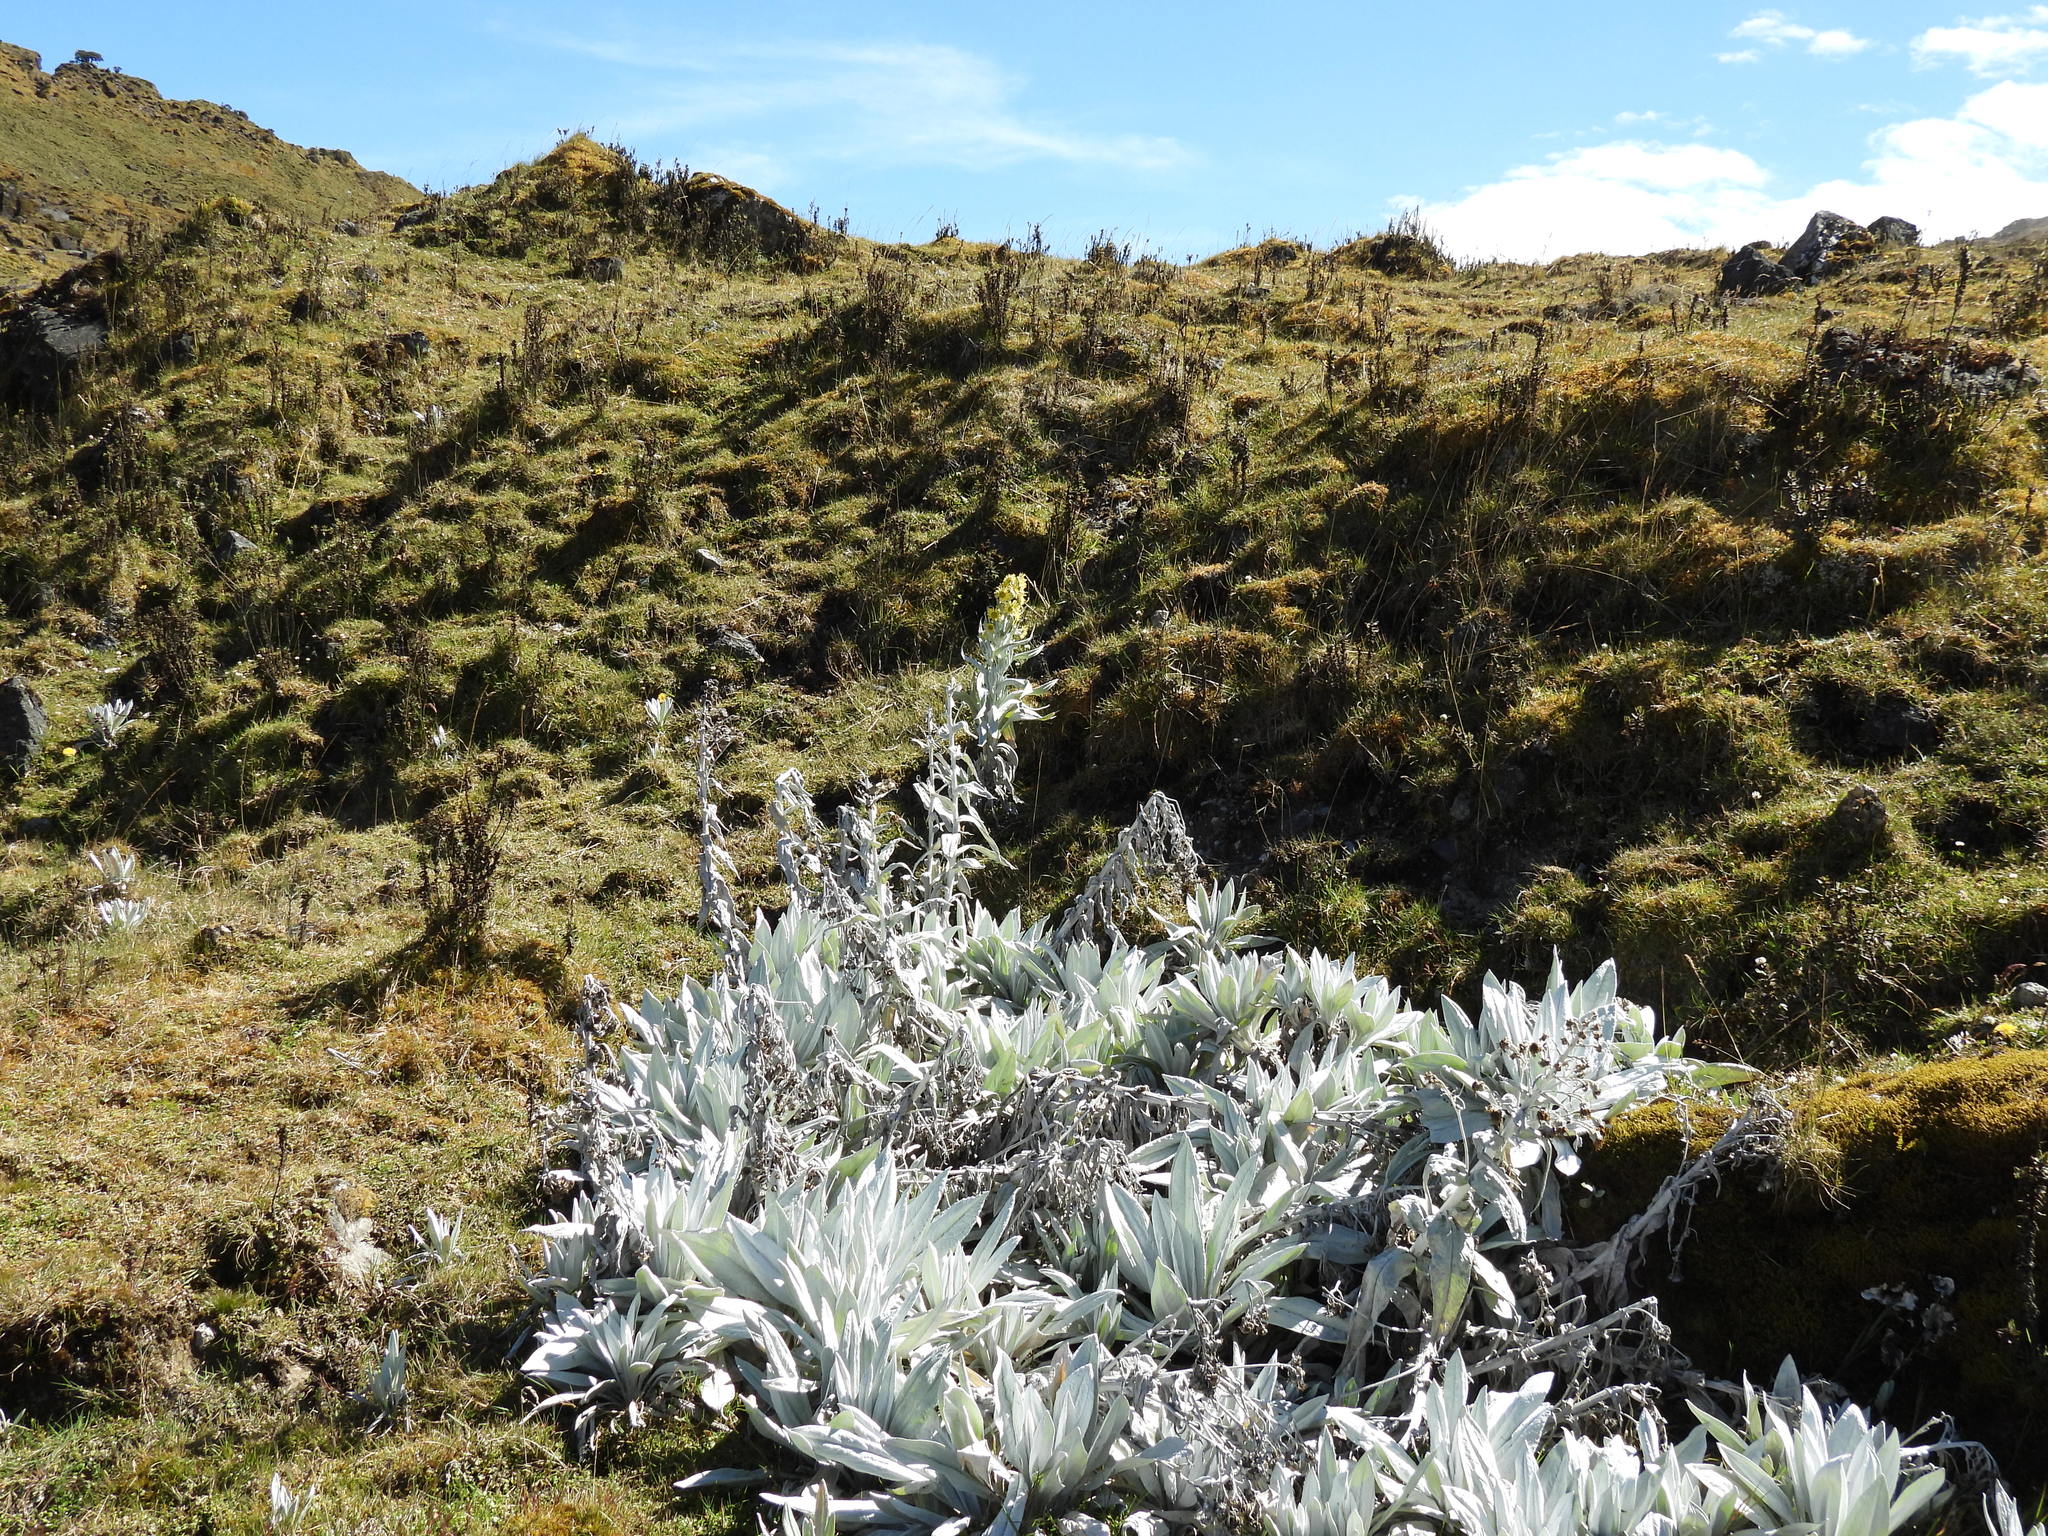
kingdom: Plantae
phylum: Tracheophyta
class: Magnoliopsida
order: Asterales
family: Asteraceae
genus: Senecio
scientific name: Senecio niveoaureus
